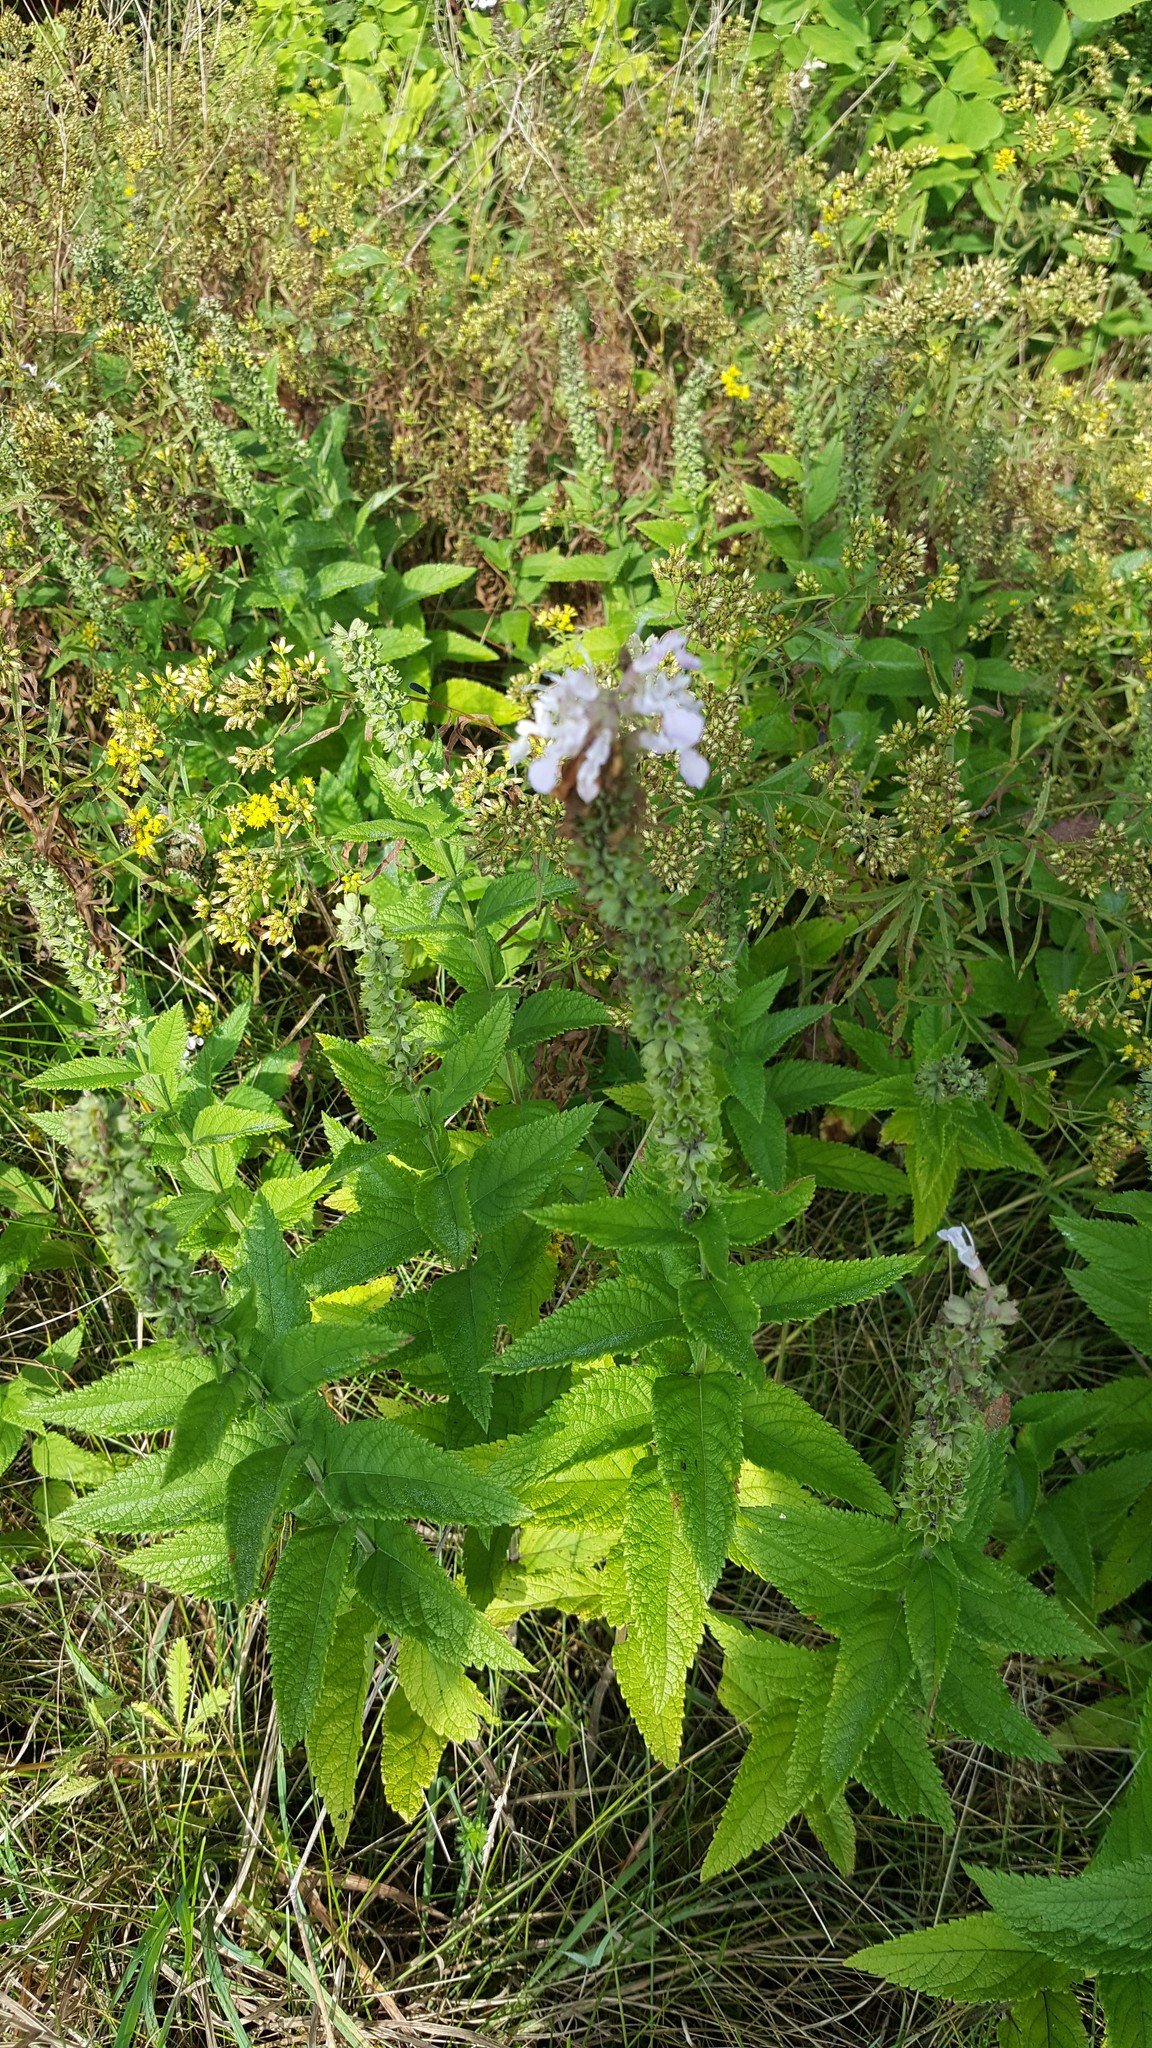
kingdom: Plantae
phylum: Tracheophyta
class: Magnoliopsida
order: Lamiales
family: Lamiaceae
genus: Teucrium
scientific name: Teucrium canadense
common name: American germander
